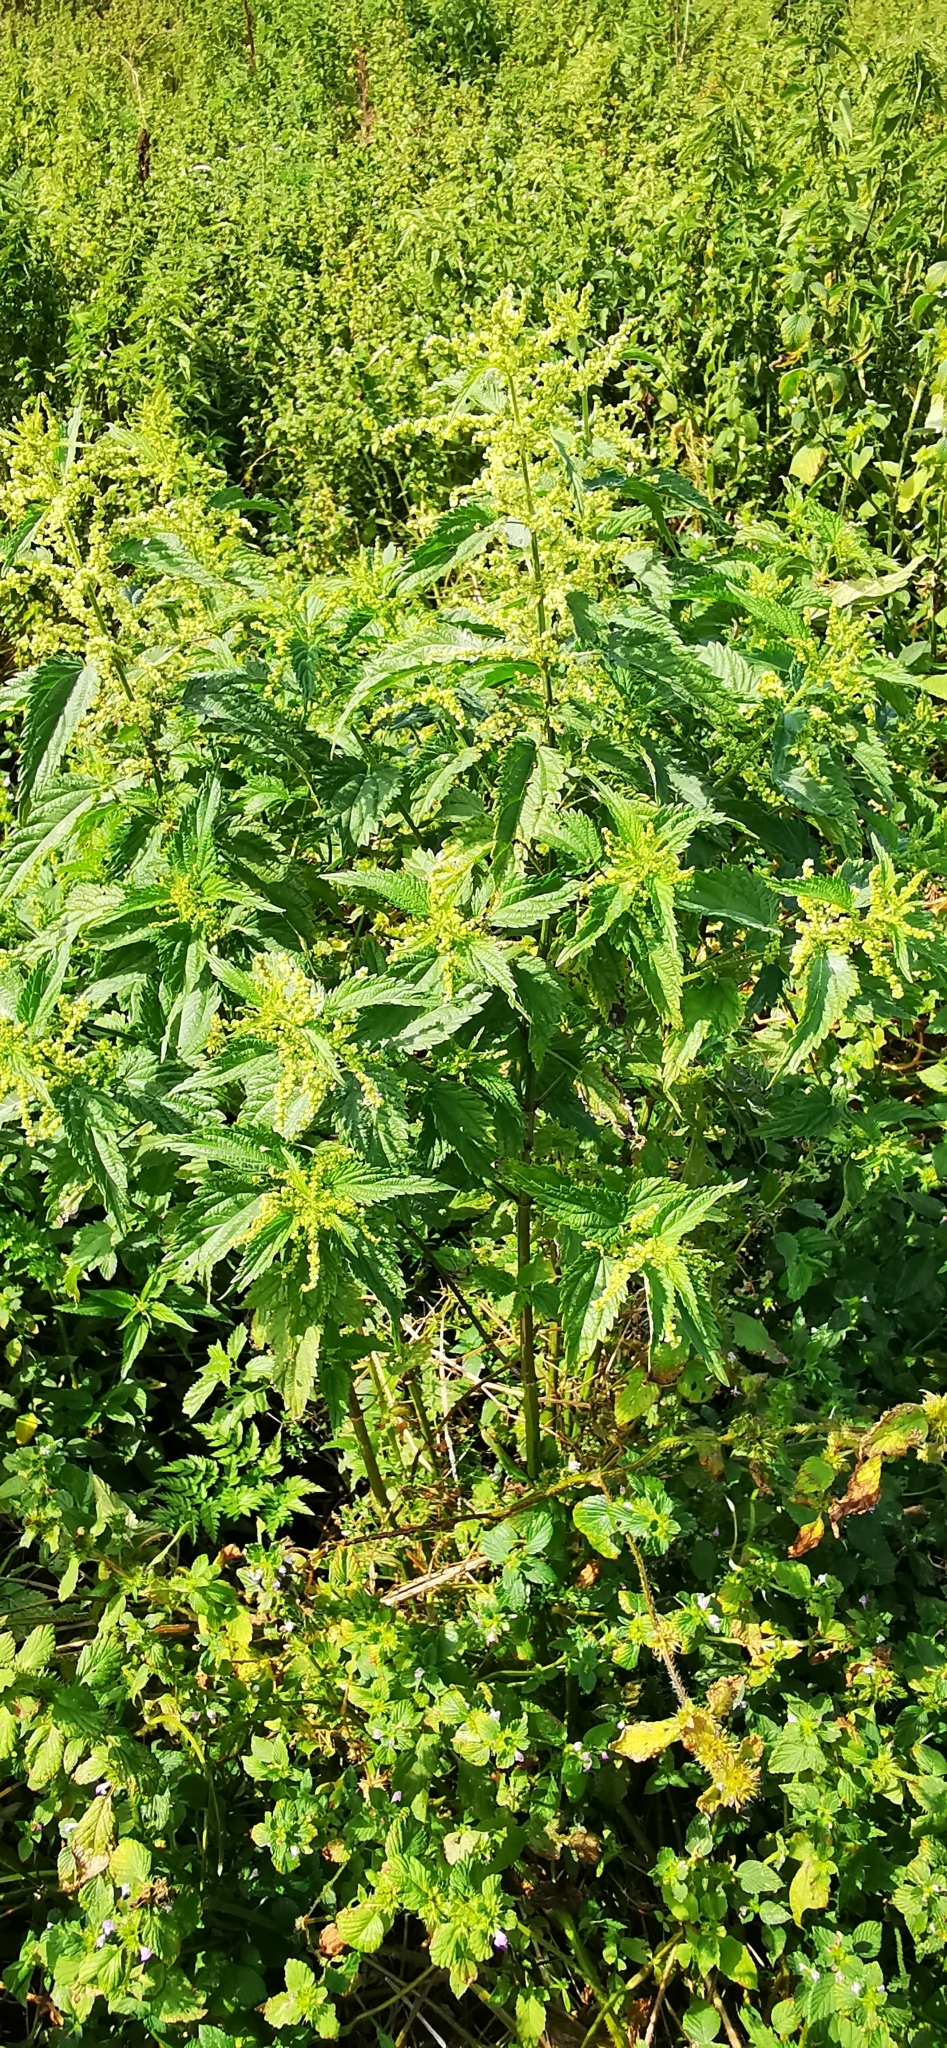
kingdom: Plantae
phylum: Tracheophyta
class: Magnoliopsida
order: Rosales
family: Urticaceae
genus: Urtica
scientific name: Urtica dioica
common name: Common nettle
